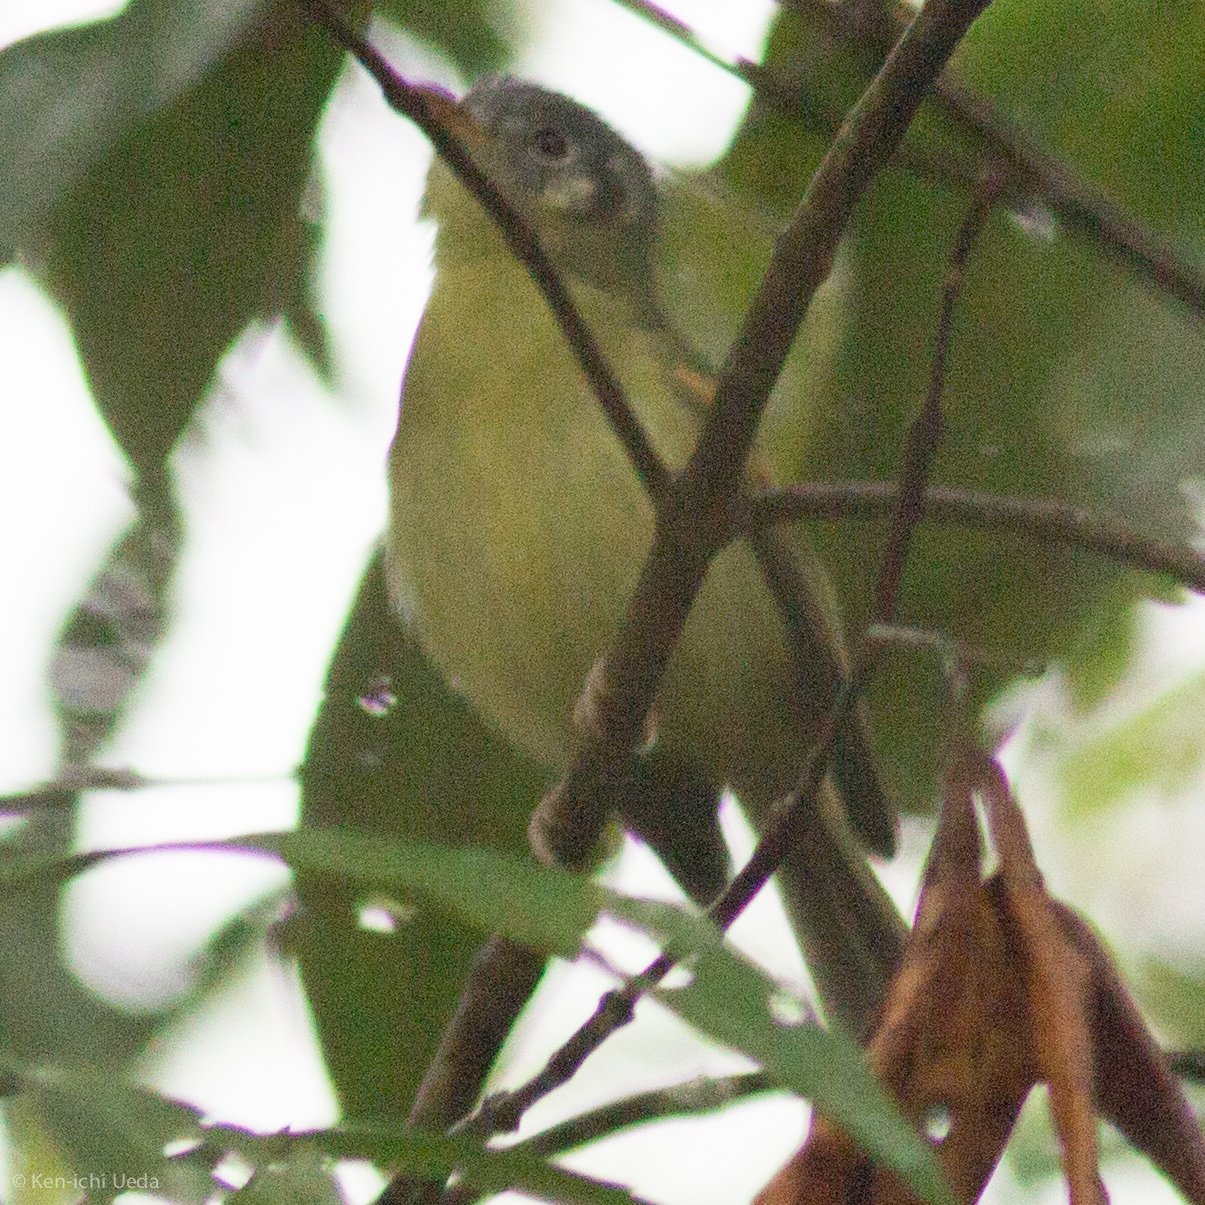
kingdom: Animalia
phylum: Chordata
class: Aves
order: Passeriformes
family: Tyrannidae
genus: Phyllomyias
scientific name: Phyllomyias cinereiceps
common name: Ashy-headed tyrannulet
